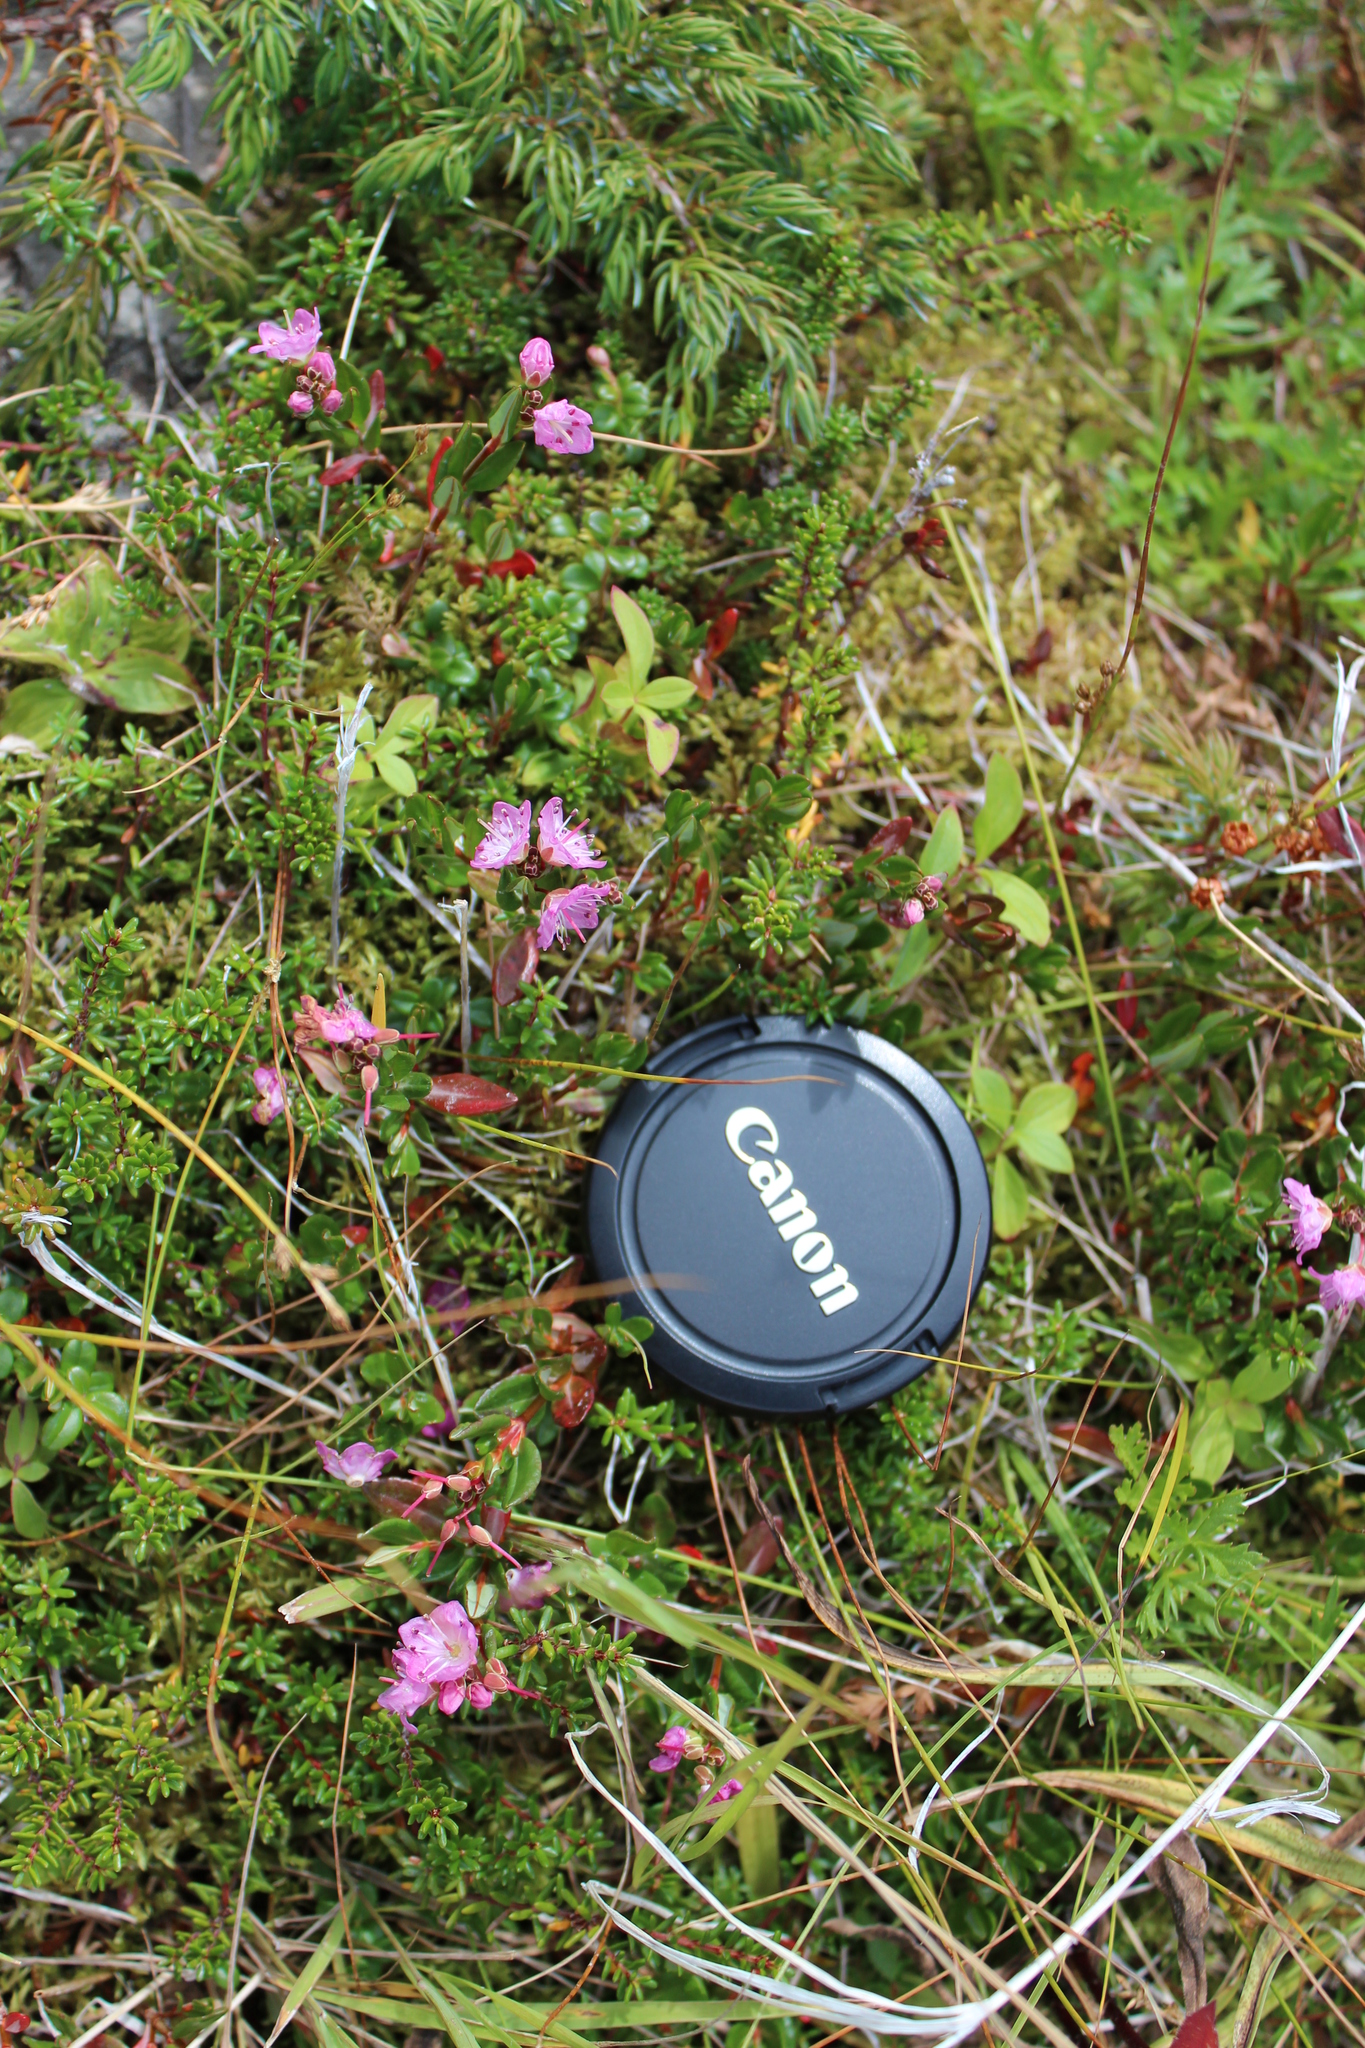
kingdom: Plantae
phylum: Tracheophyta
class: Magnoliopsida
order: Ericales
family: Ericaceae
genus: Kalmia
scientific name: Kalmia microphylla
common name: Alpine bog laurel
